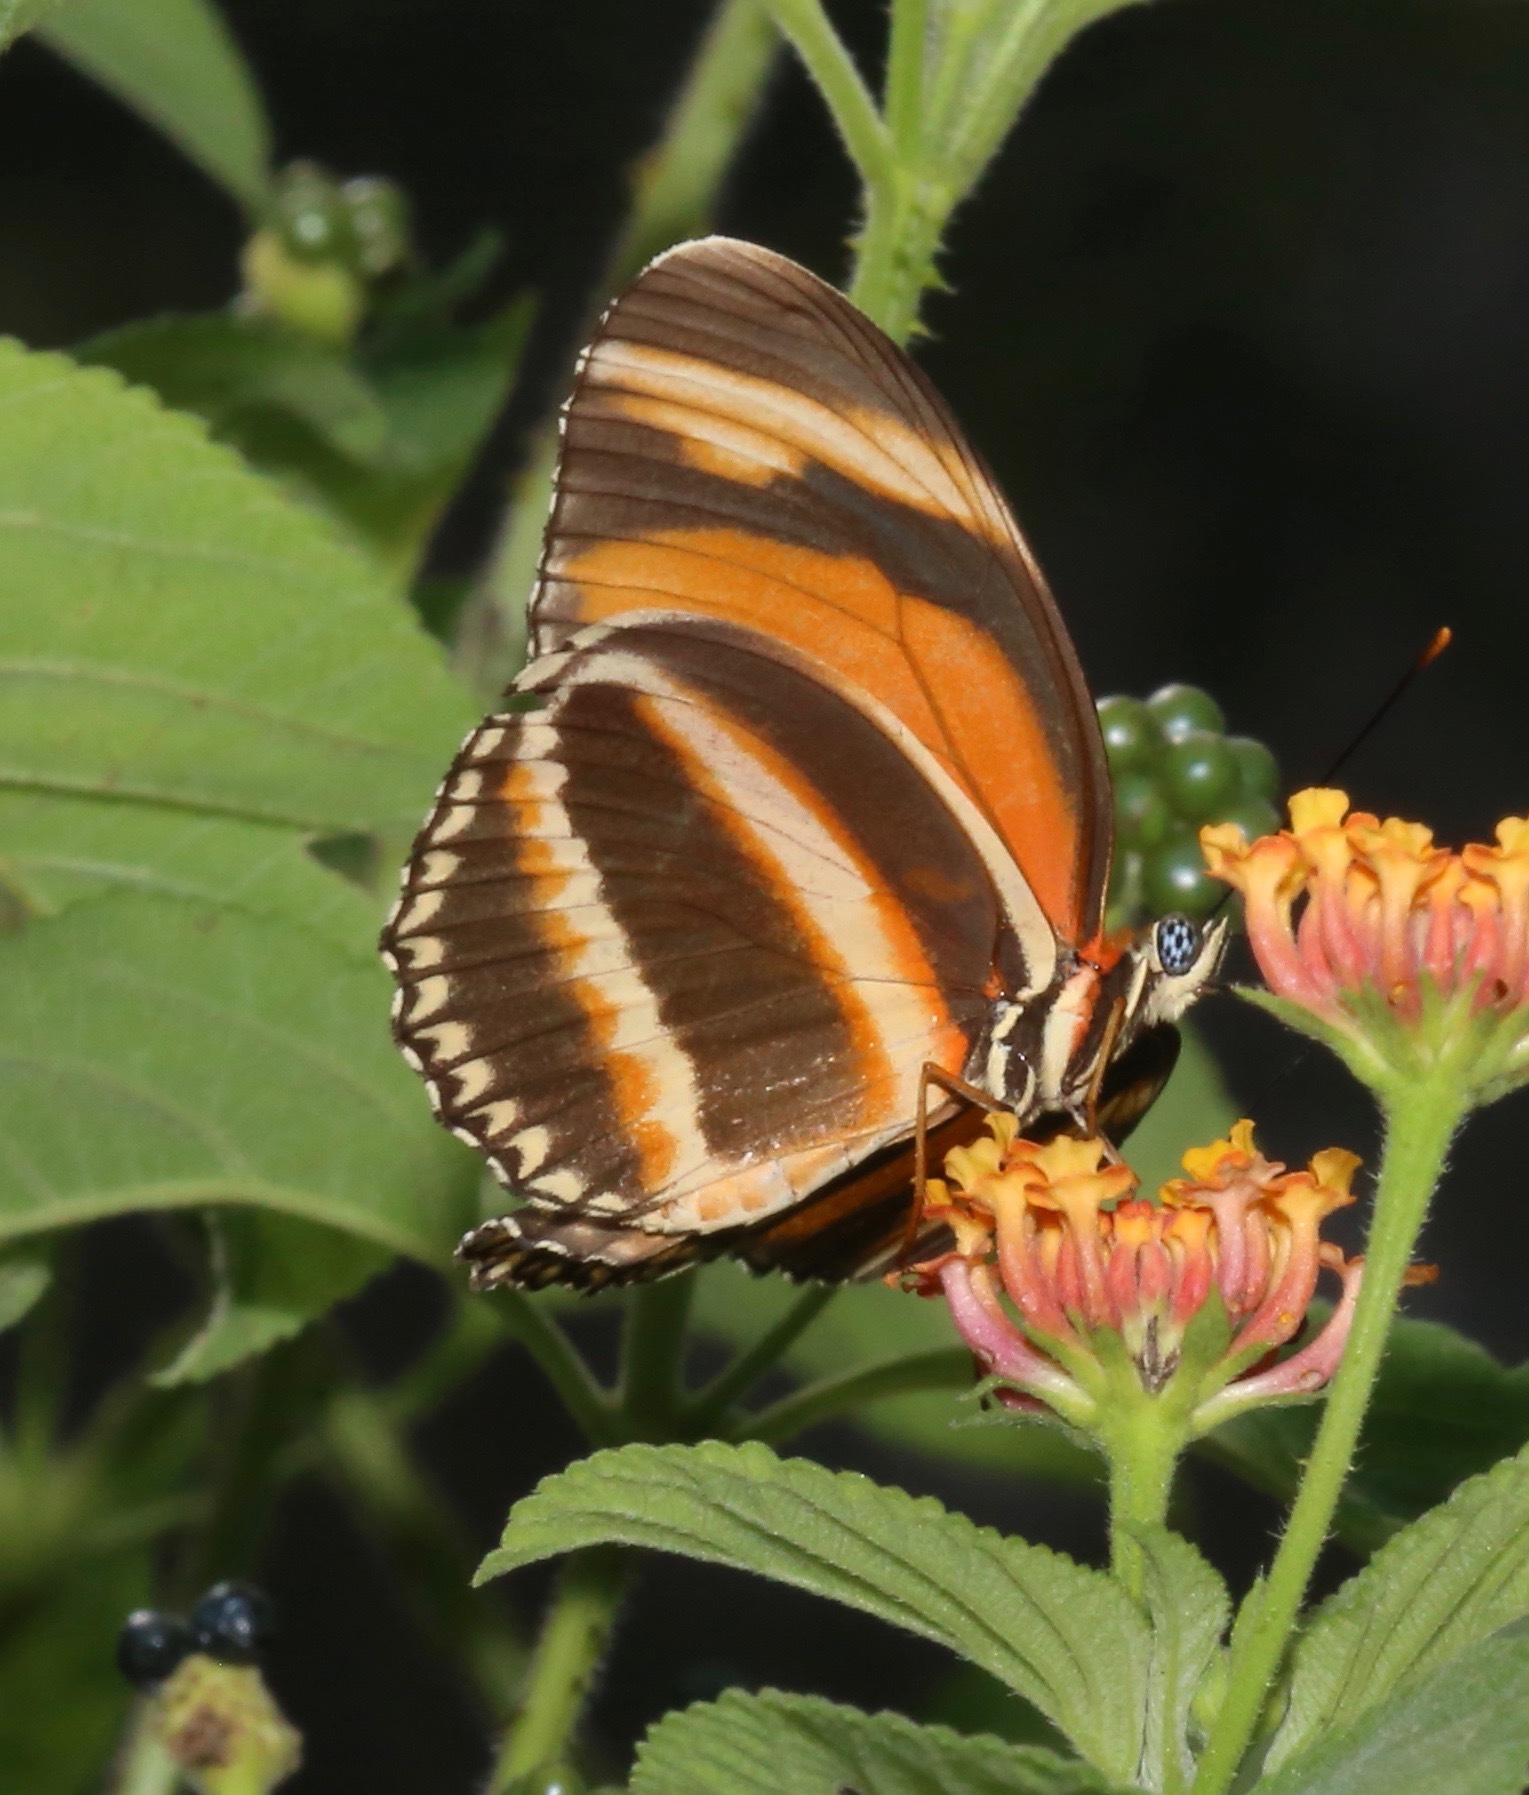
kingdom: Animalia
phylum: Arthropoda
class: Insecta
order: Lepidoptera
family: Nymphalidae
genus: Dryadula
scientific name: Dryadula phaetusa
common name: Banded orange heliconian
